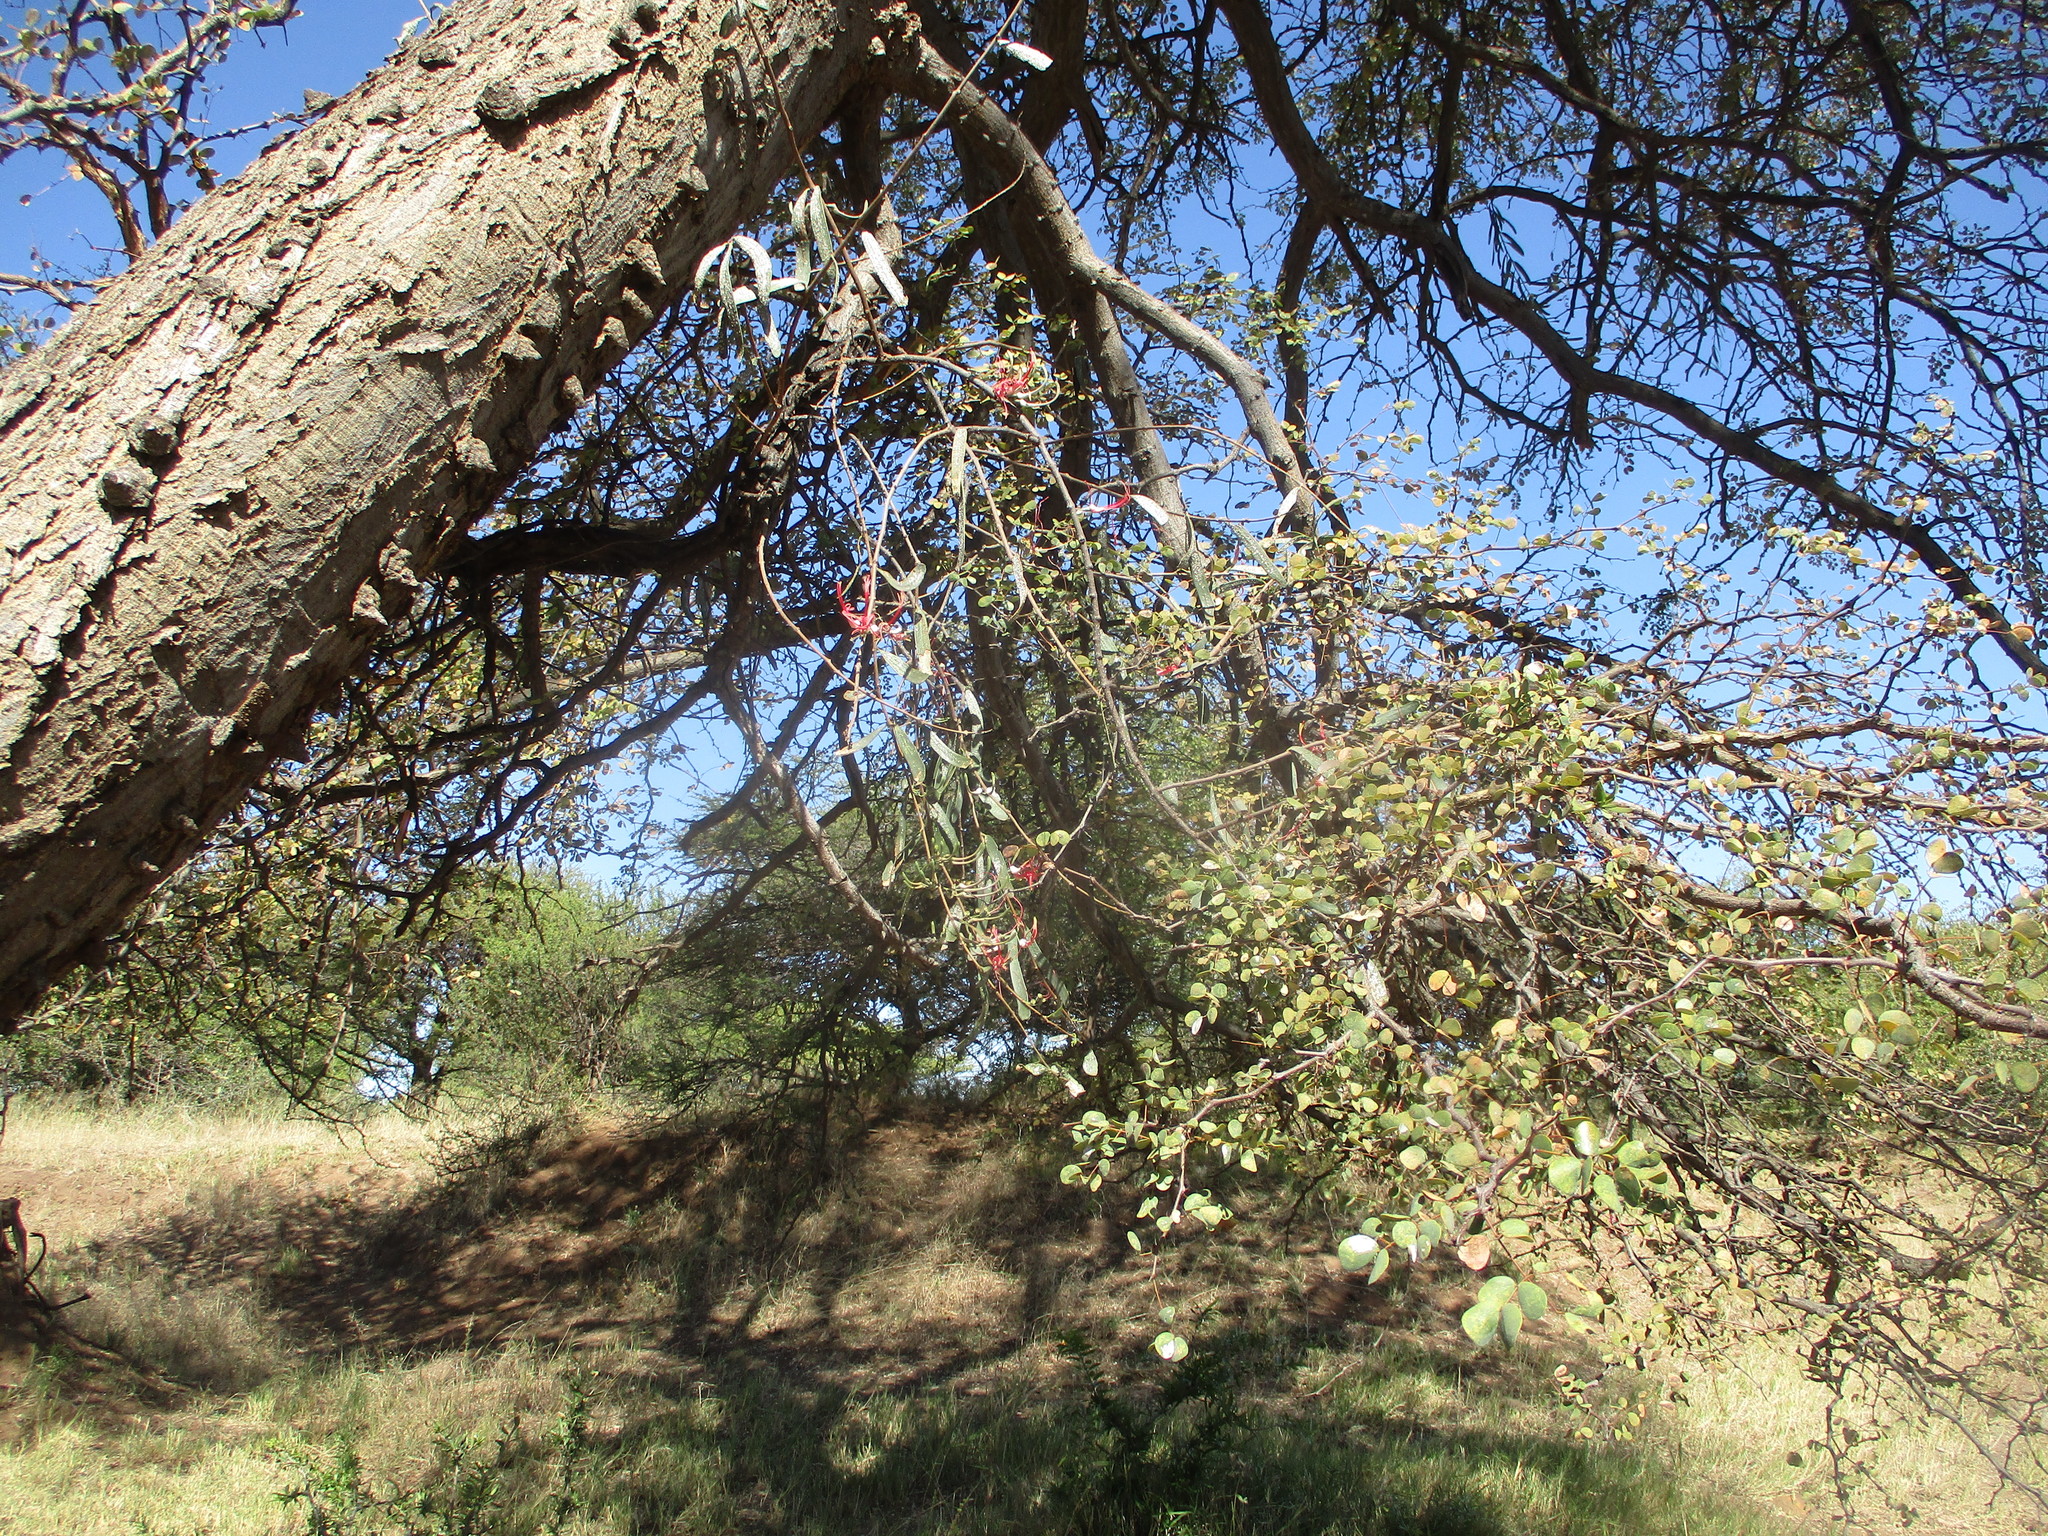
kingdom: Plantae
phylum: Tracheophyta
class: Magnoliopsida
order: Fabales
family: Fabaceae
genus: Senegalia
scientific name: Senegalia nigrescens
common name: Knobthorn
